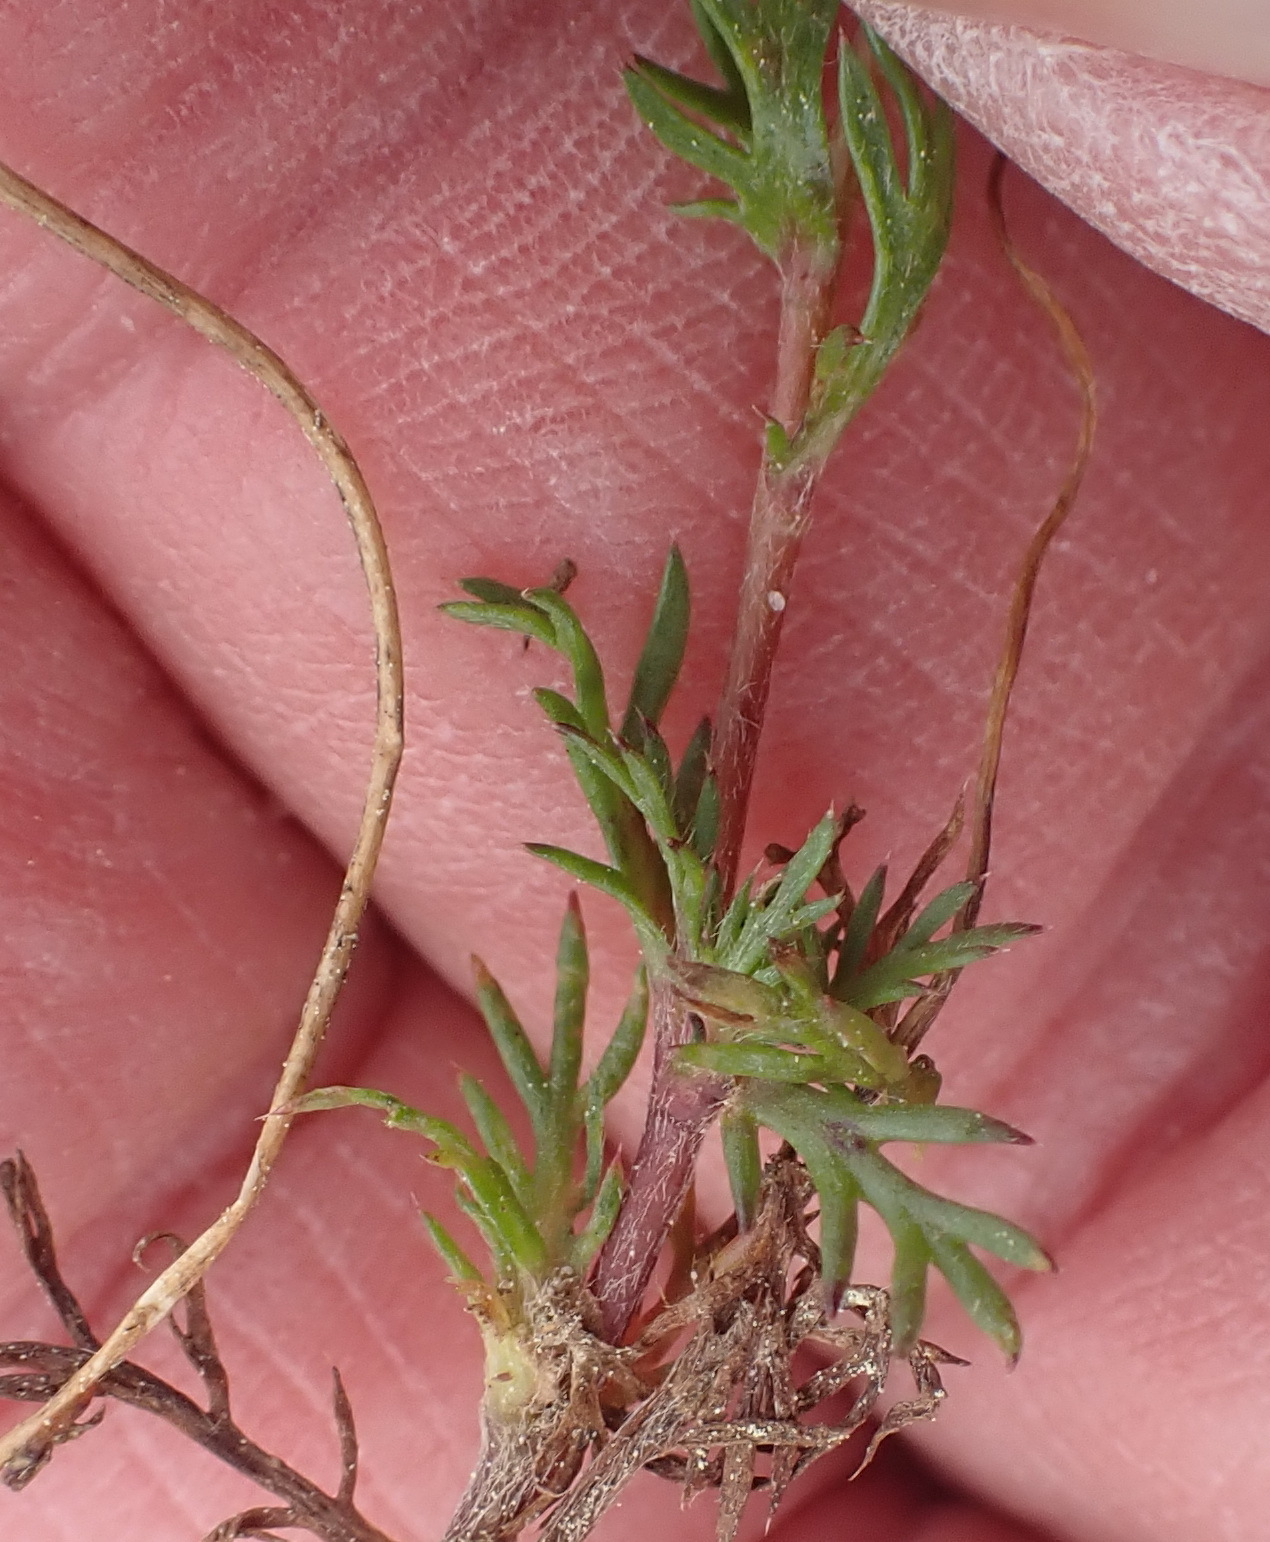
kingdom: Plantae
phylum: Tracheophyta
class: Magnoliopsida
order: Asterales
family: Asteraceae
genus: Cotula
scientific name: Cotula turbinata
